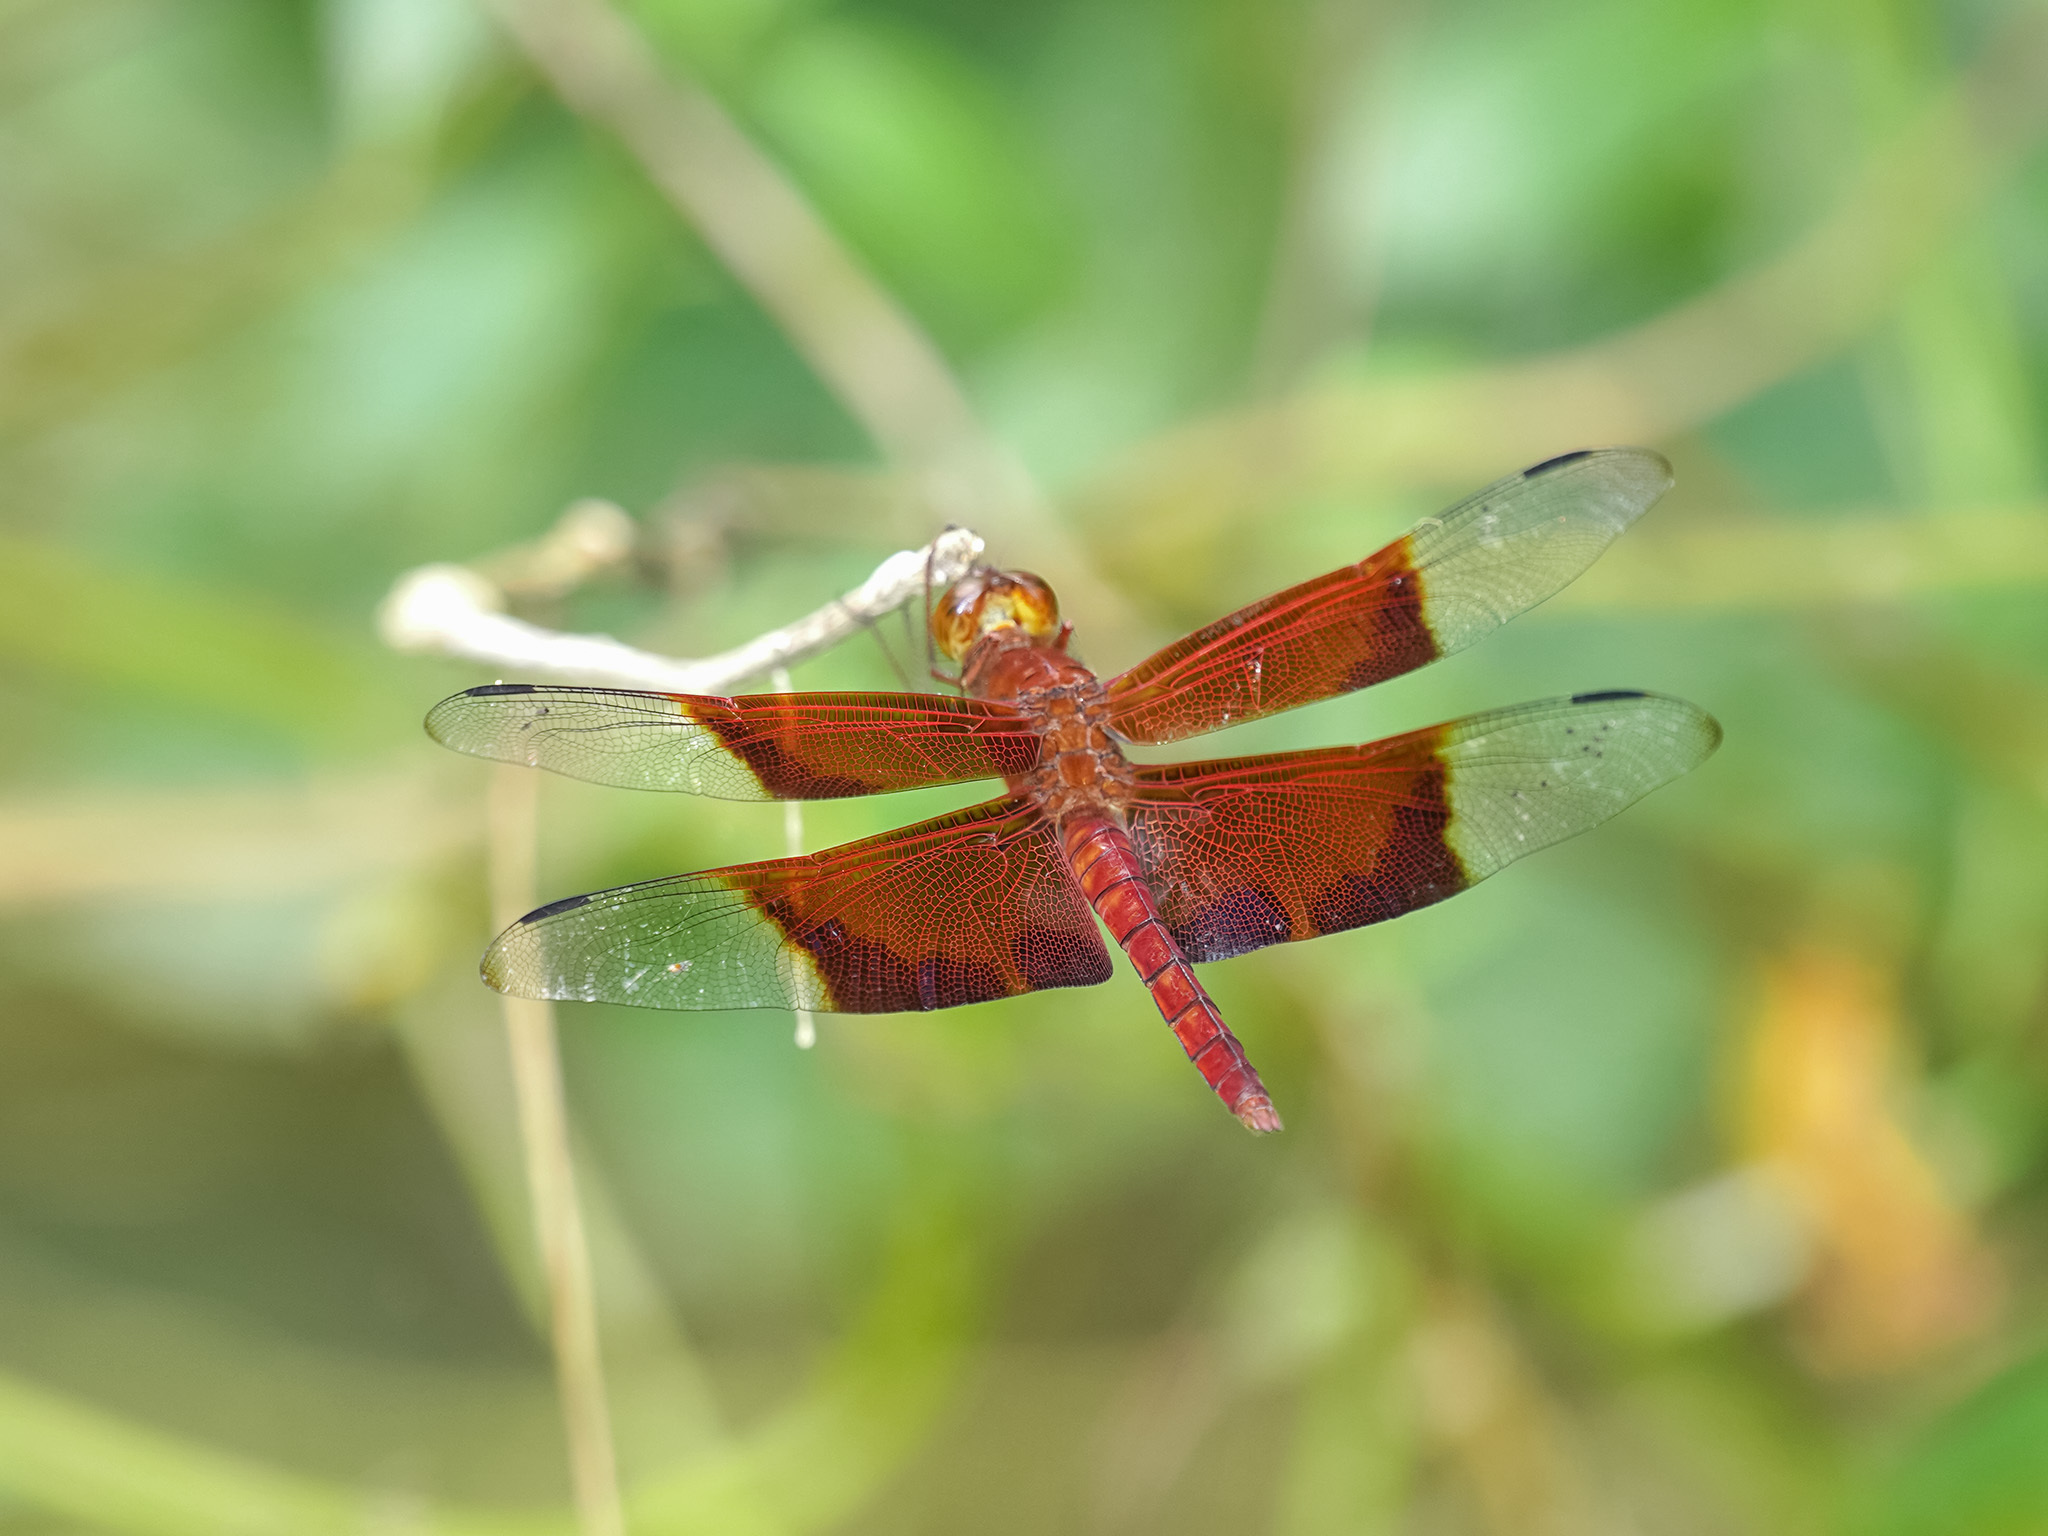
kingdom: Animalia
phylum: Arthropoda
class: Insecta
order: Odonata
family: Libellulidae
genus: Camacinia
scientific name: Camacinia gigantea
